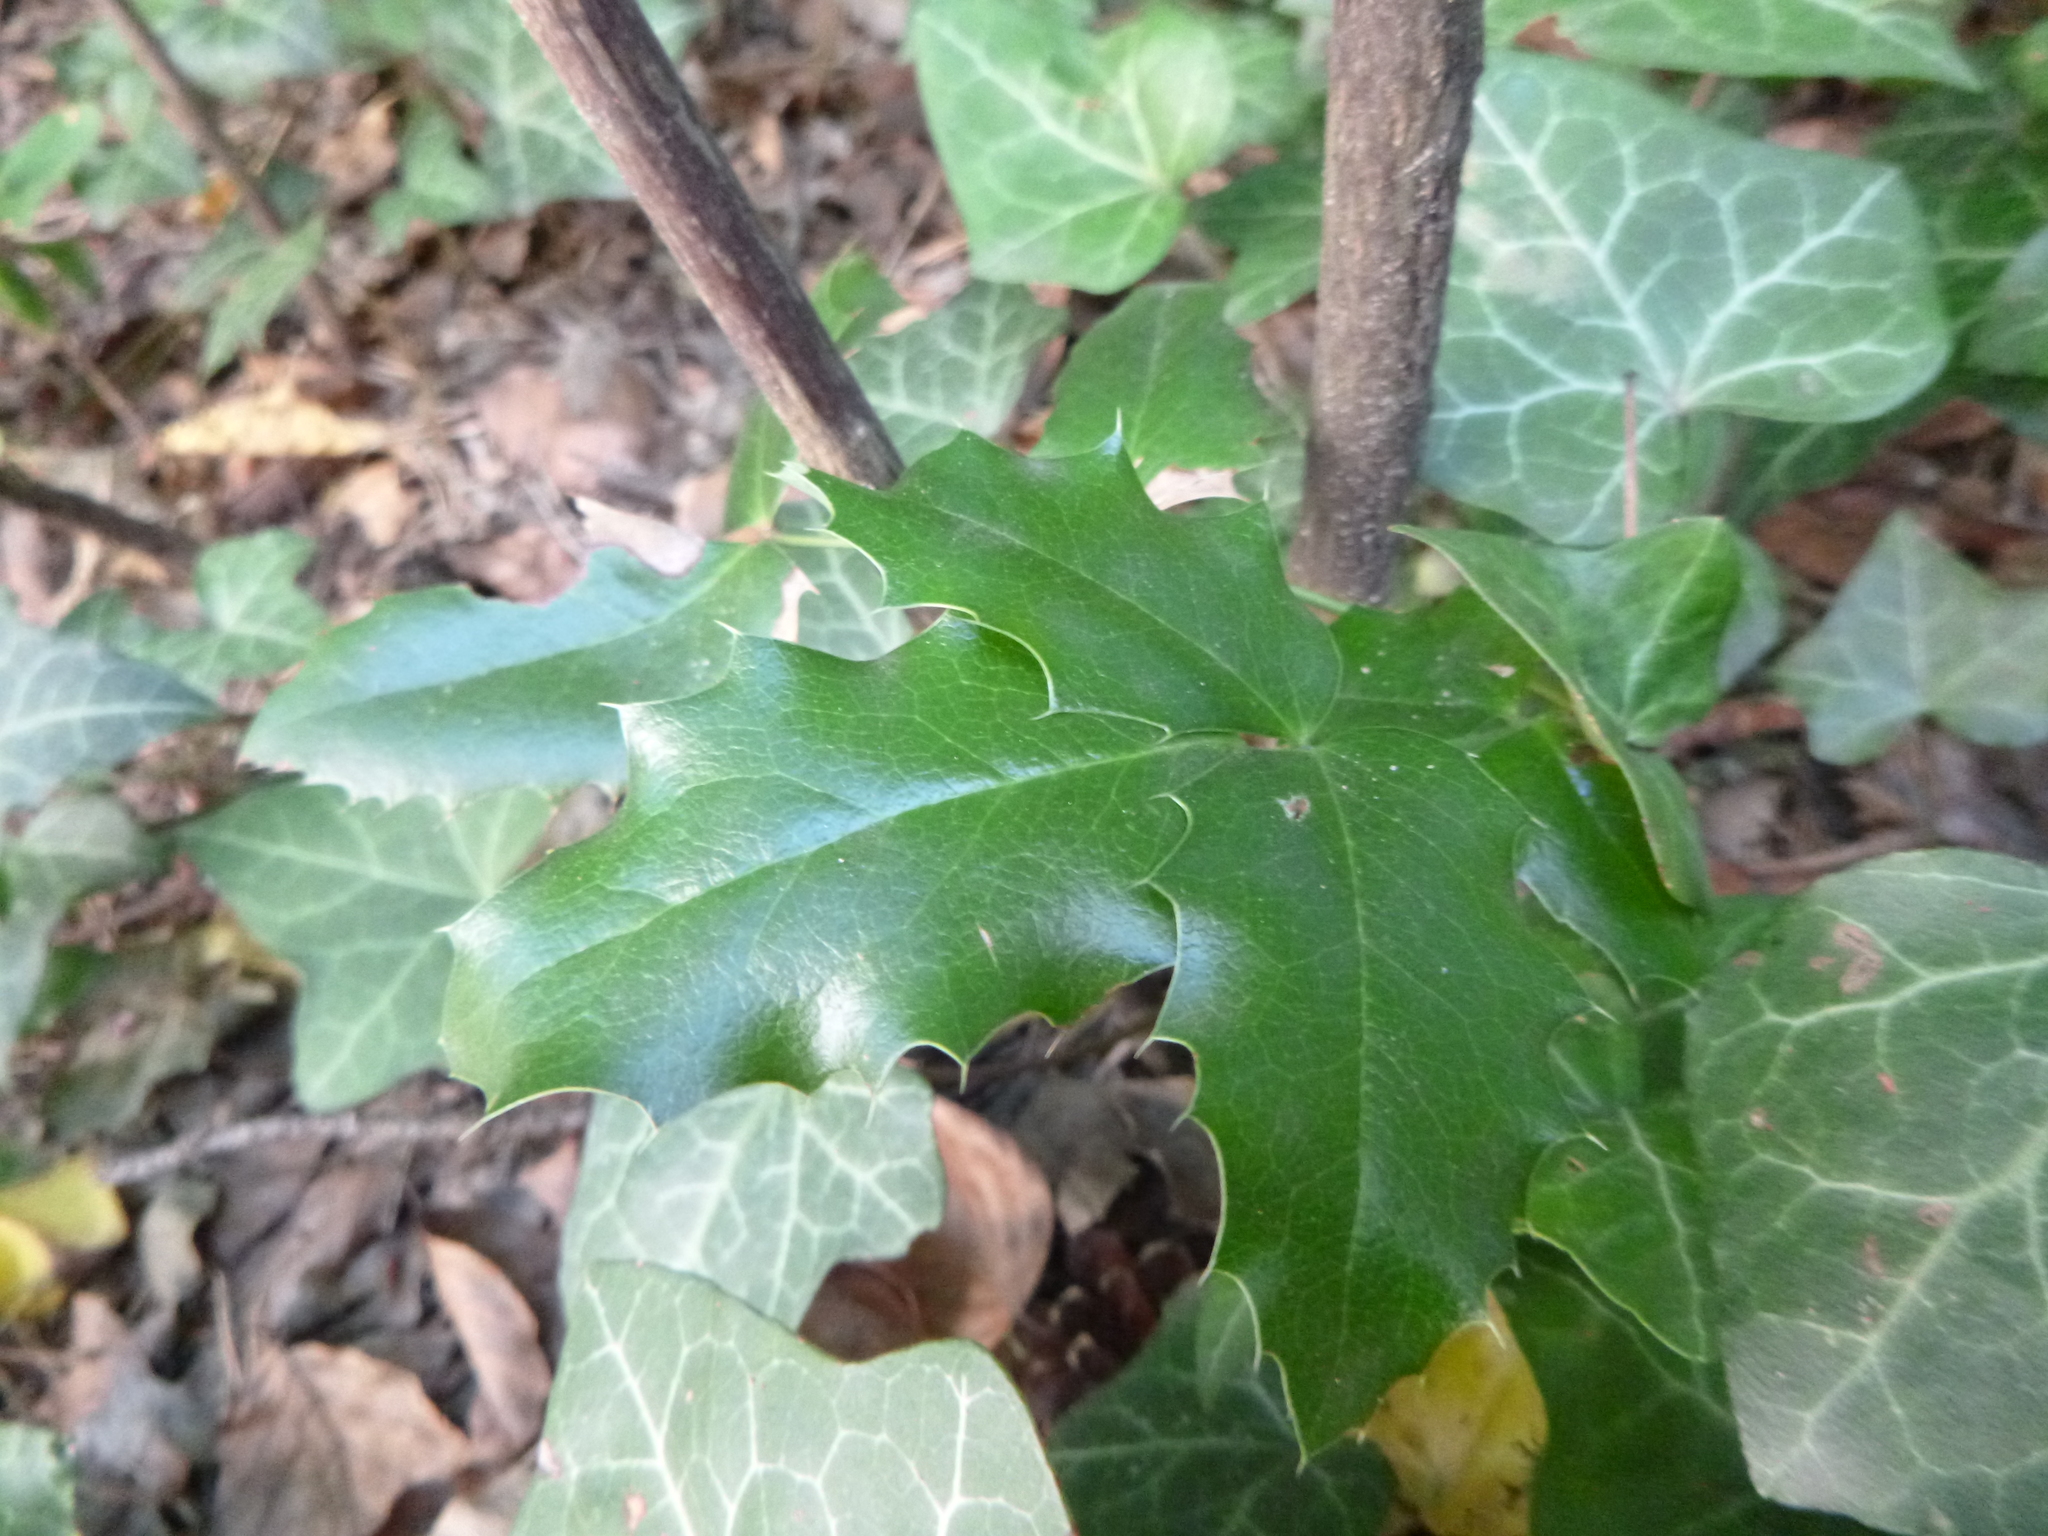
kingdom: Plantae
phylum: Tracheophyta
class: Magnoliopsida
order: Ranunculales
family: Berberidaceae
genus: Mahonia
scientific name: Mahonia aquifolium
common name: Oregon-grape
